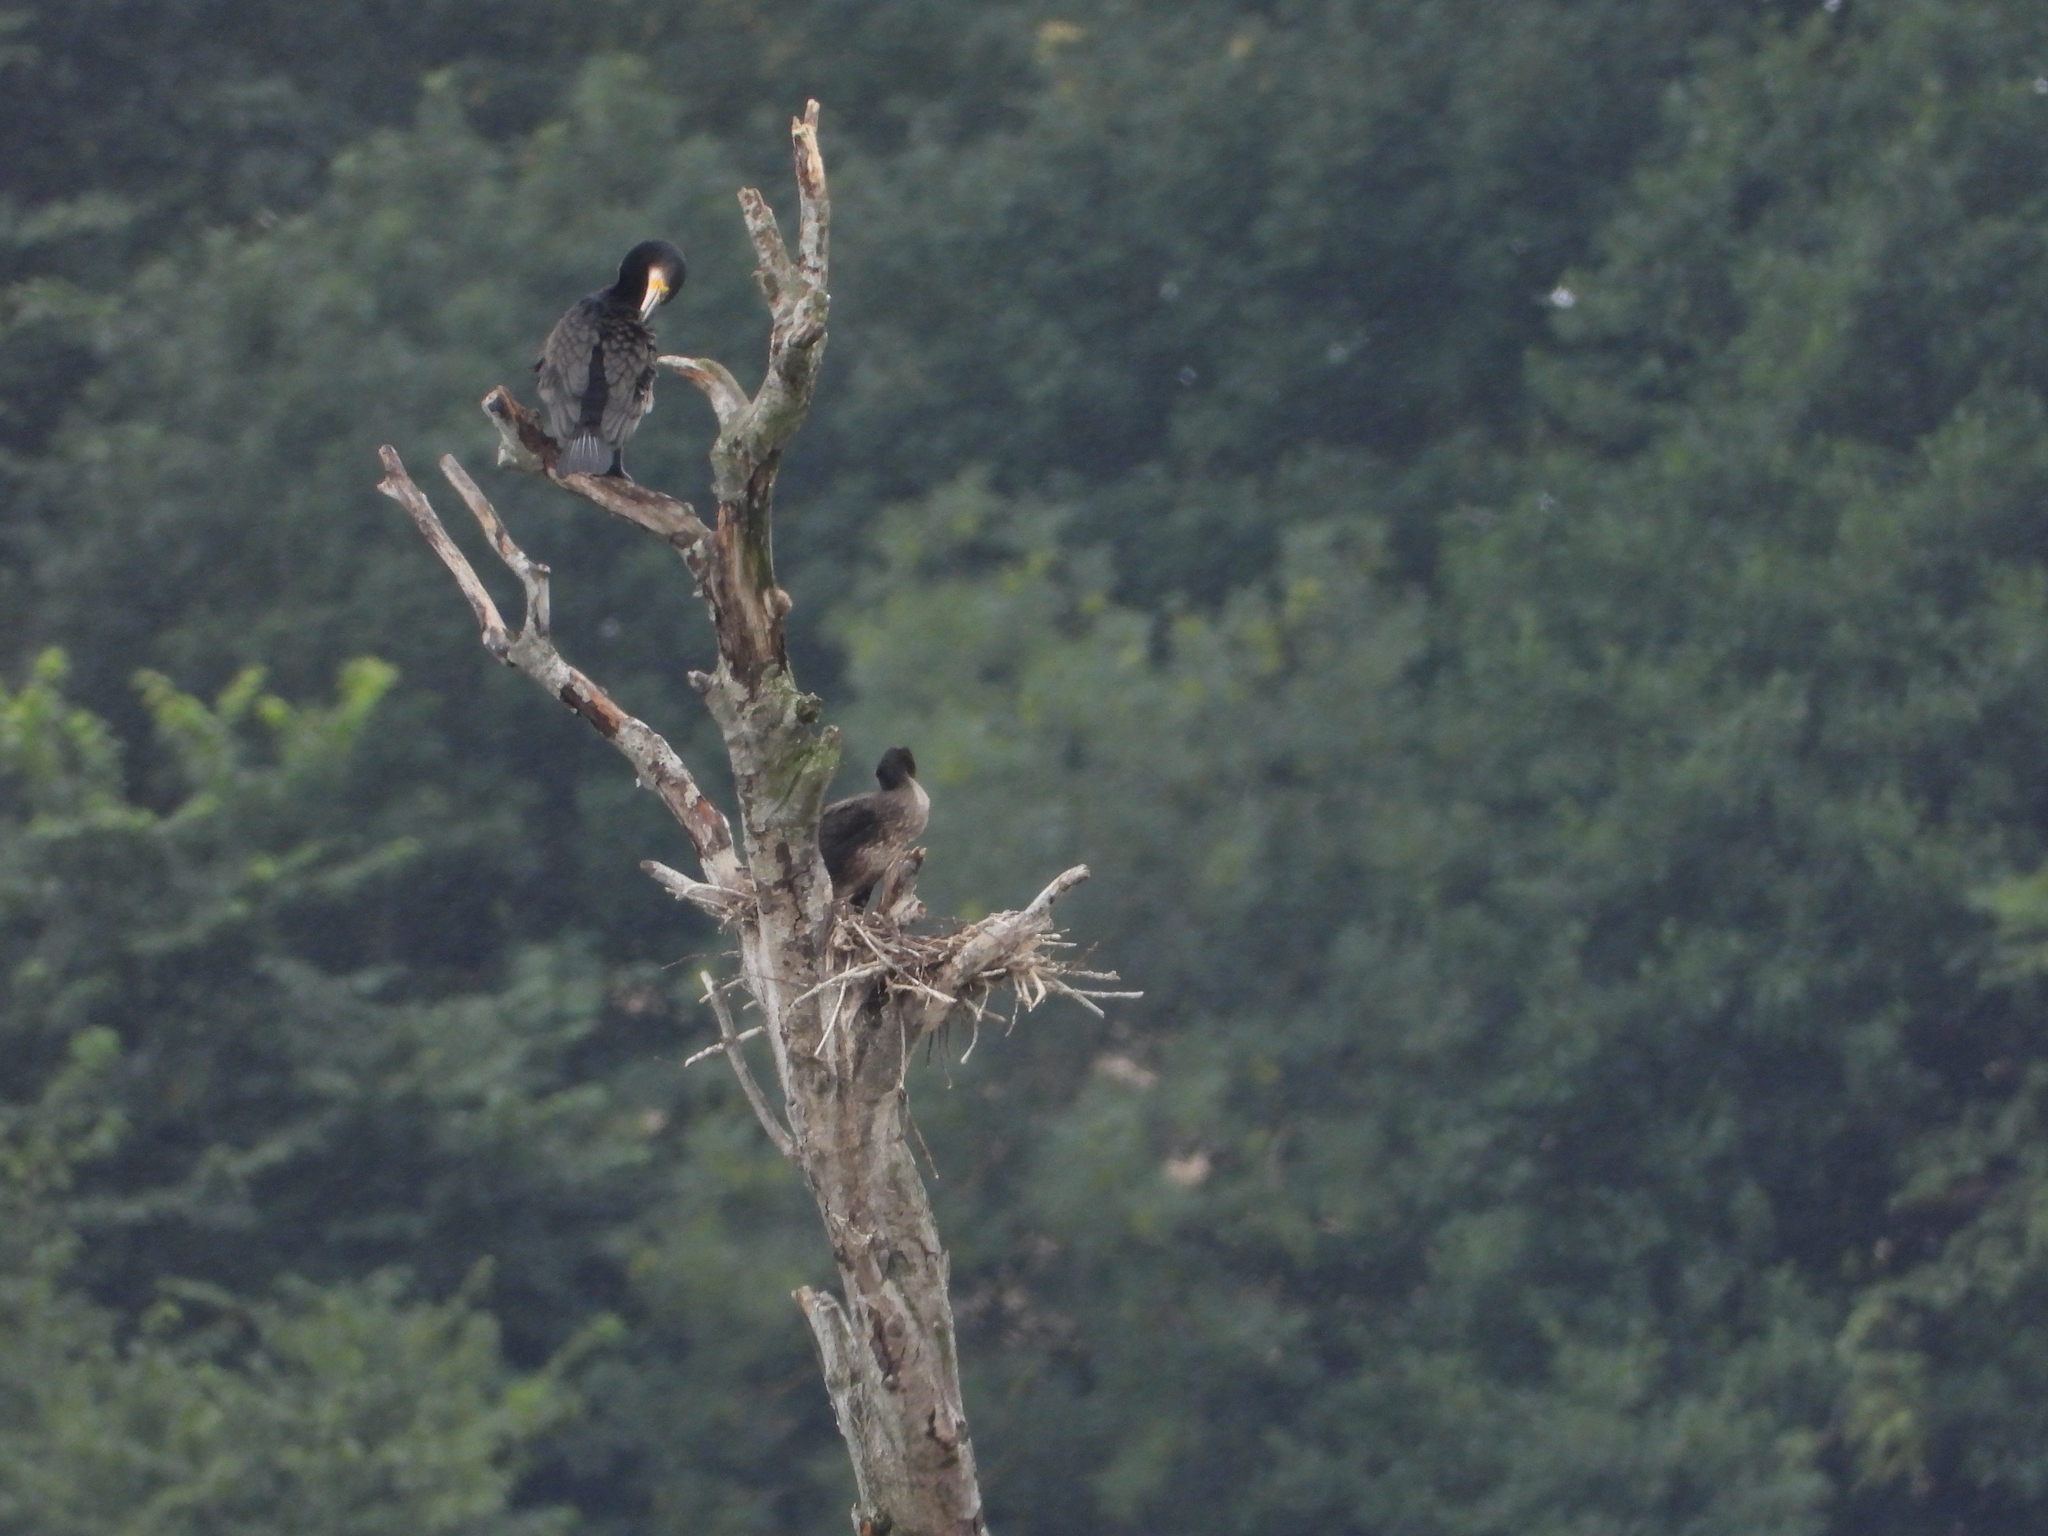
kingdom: Animalia
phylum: Chordata
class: Aves
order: Suliformes
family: Phalacrocoracidae
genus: Phalacrocorax
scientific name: Phalacrocorax carbo
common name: Great cormorant
